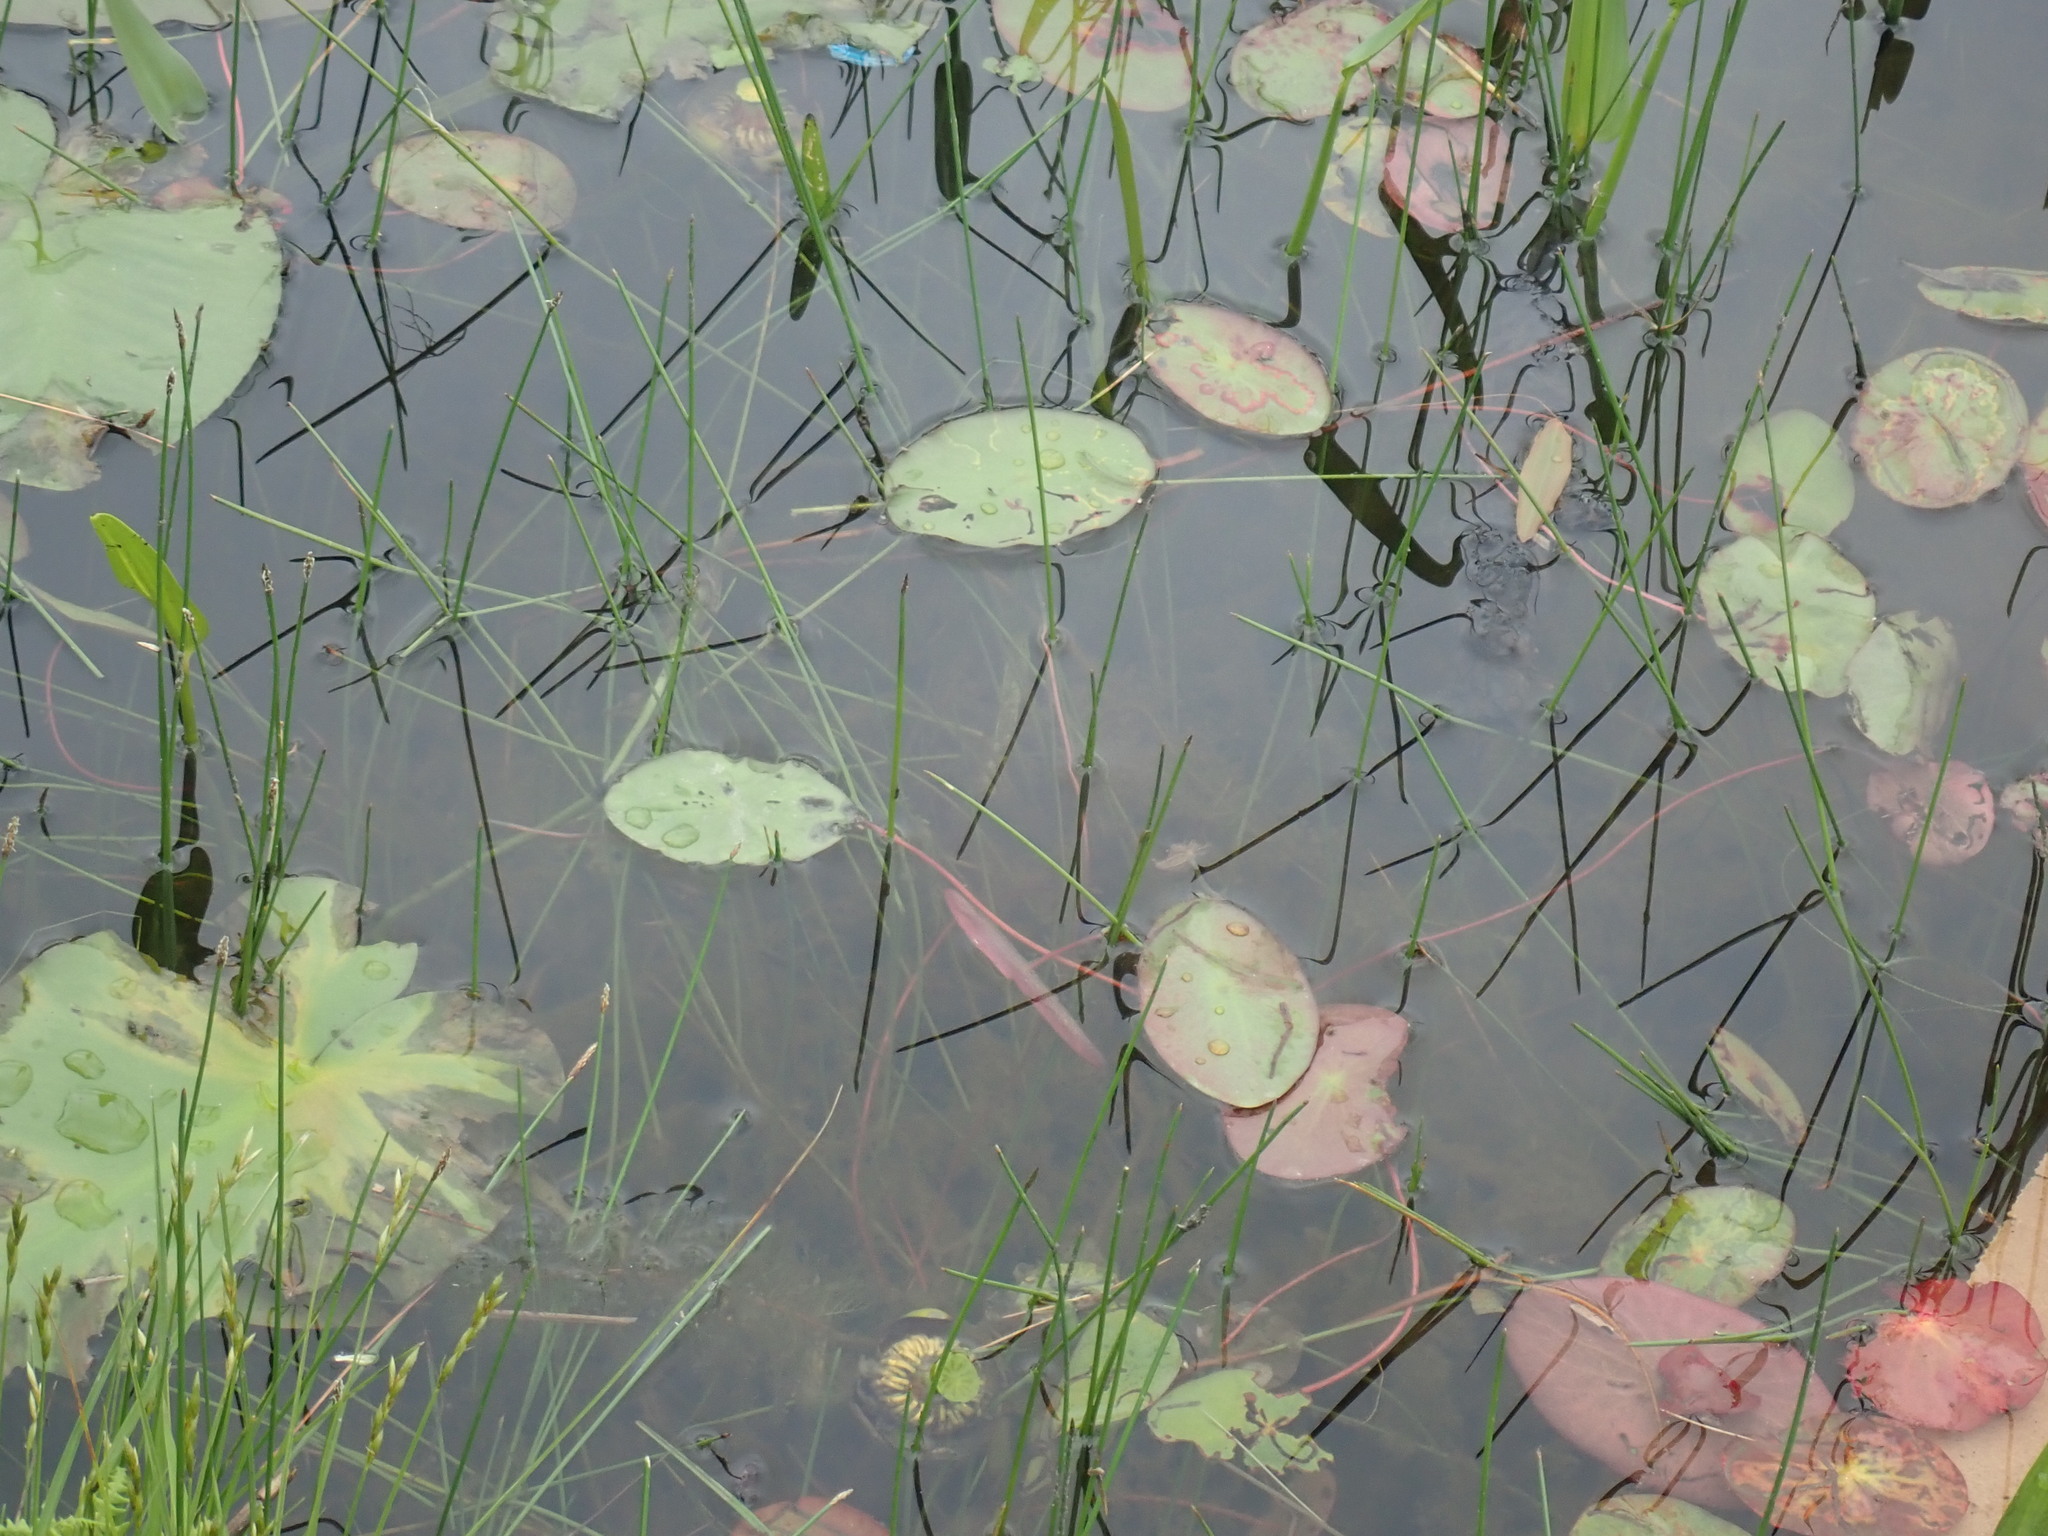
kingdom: Plantae
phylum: Tracheophyta
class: Magnoliopsida
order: Nymphaeales
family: Cabombaceae
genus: Brasenia
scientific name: Brasenia schreberi
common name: Water-shield
